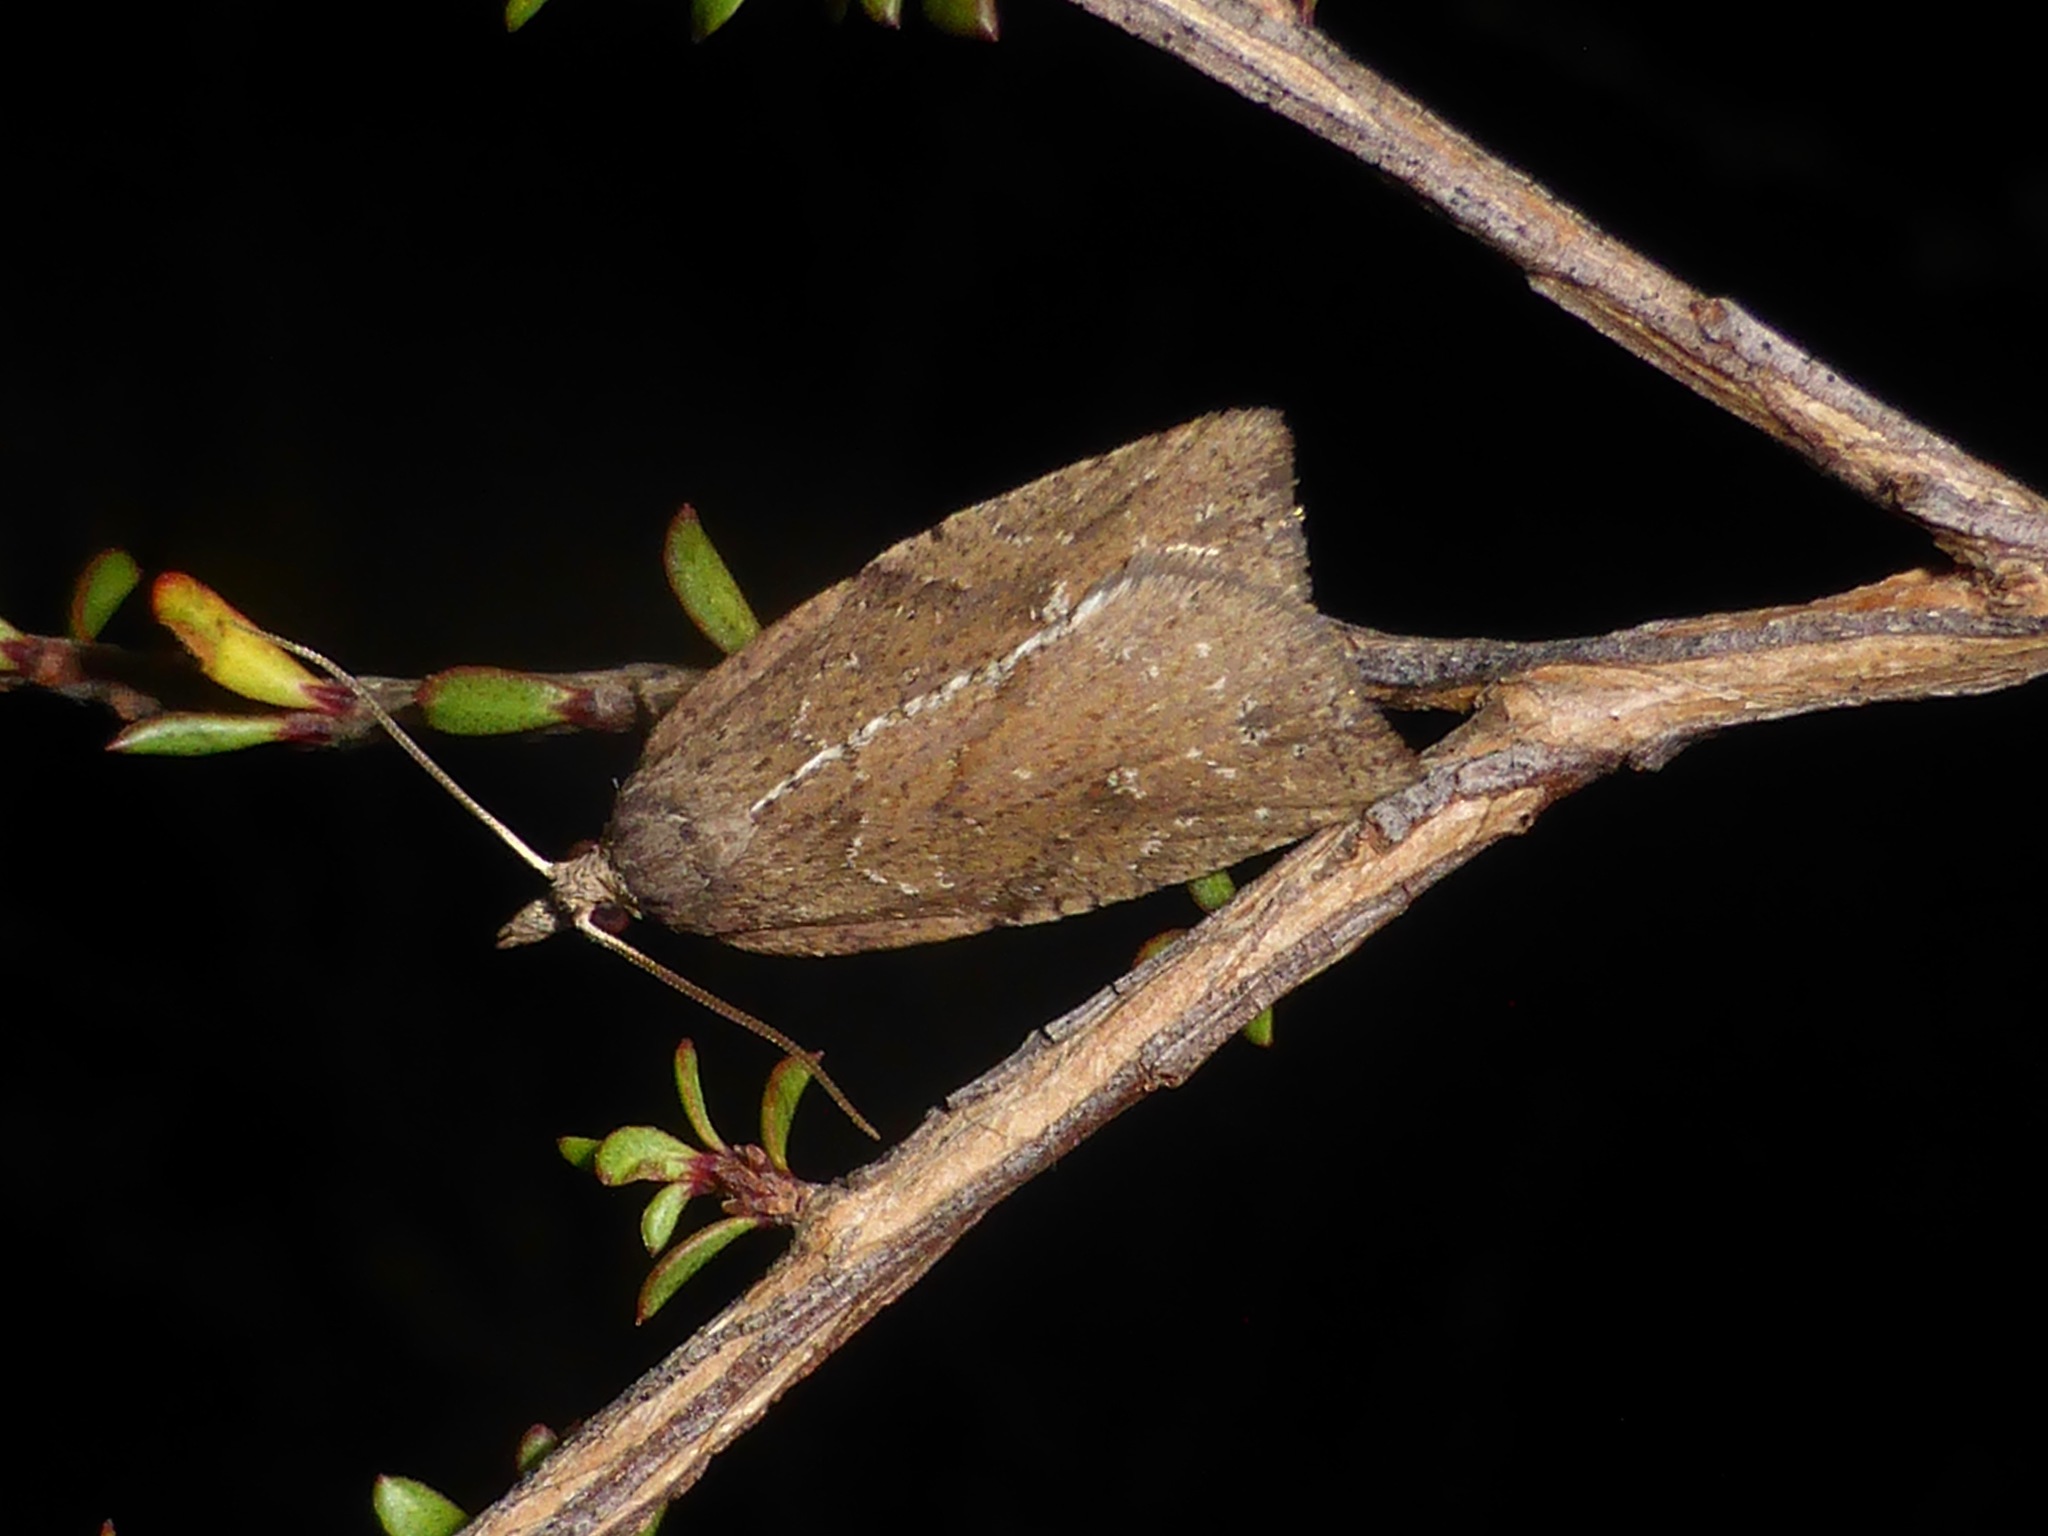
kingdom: Animalia
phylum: Arthropoda
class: Insecta
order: Lepidoptera
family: Tortricidae
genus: Planotortrix
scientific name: Planotortrix notophaea
